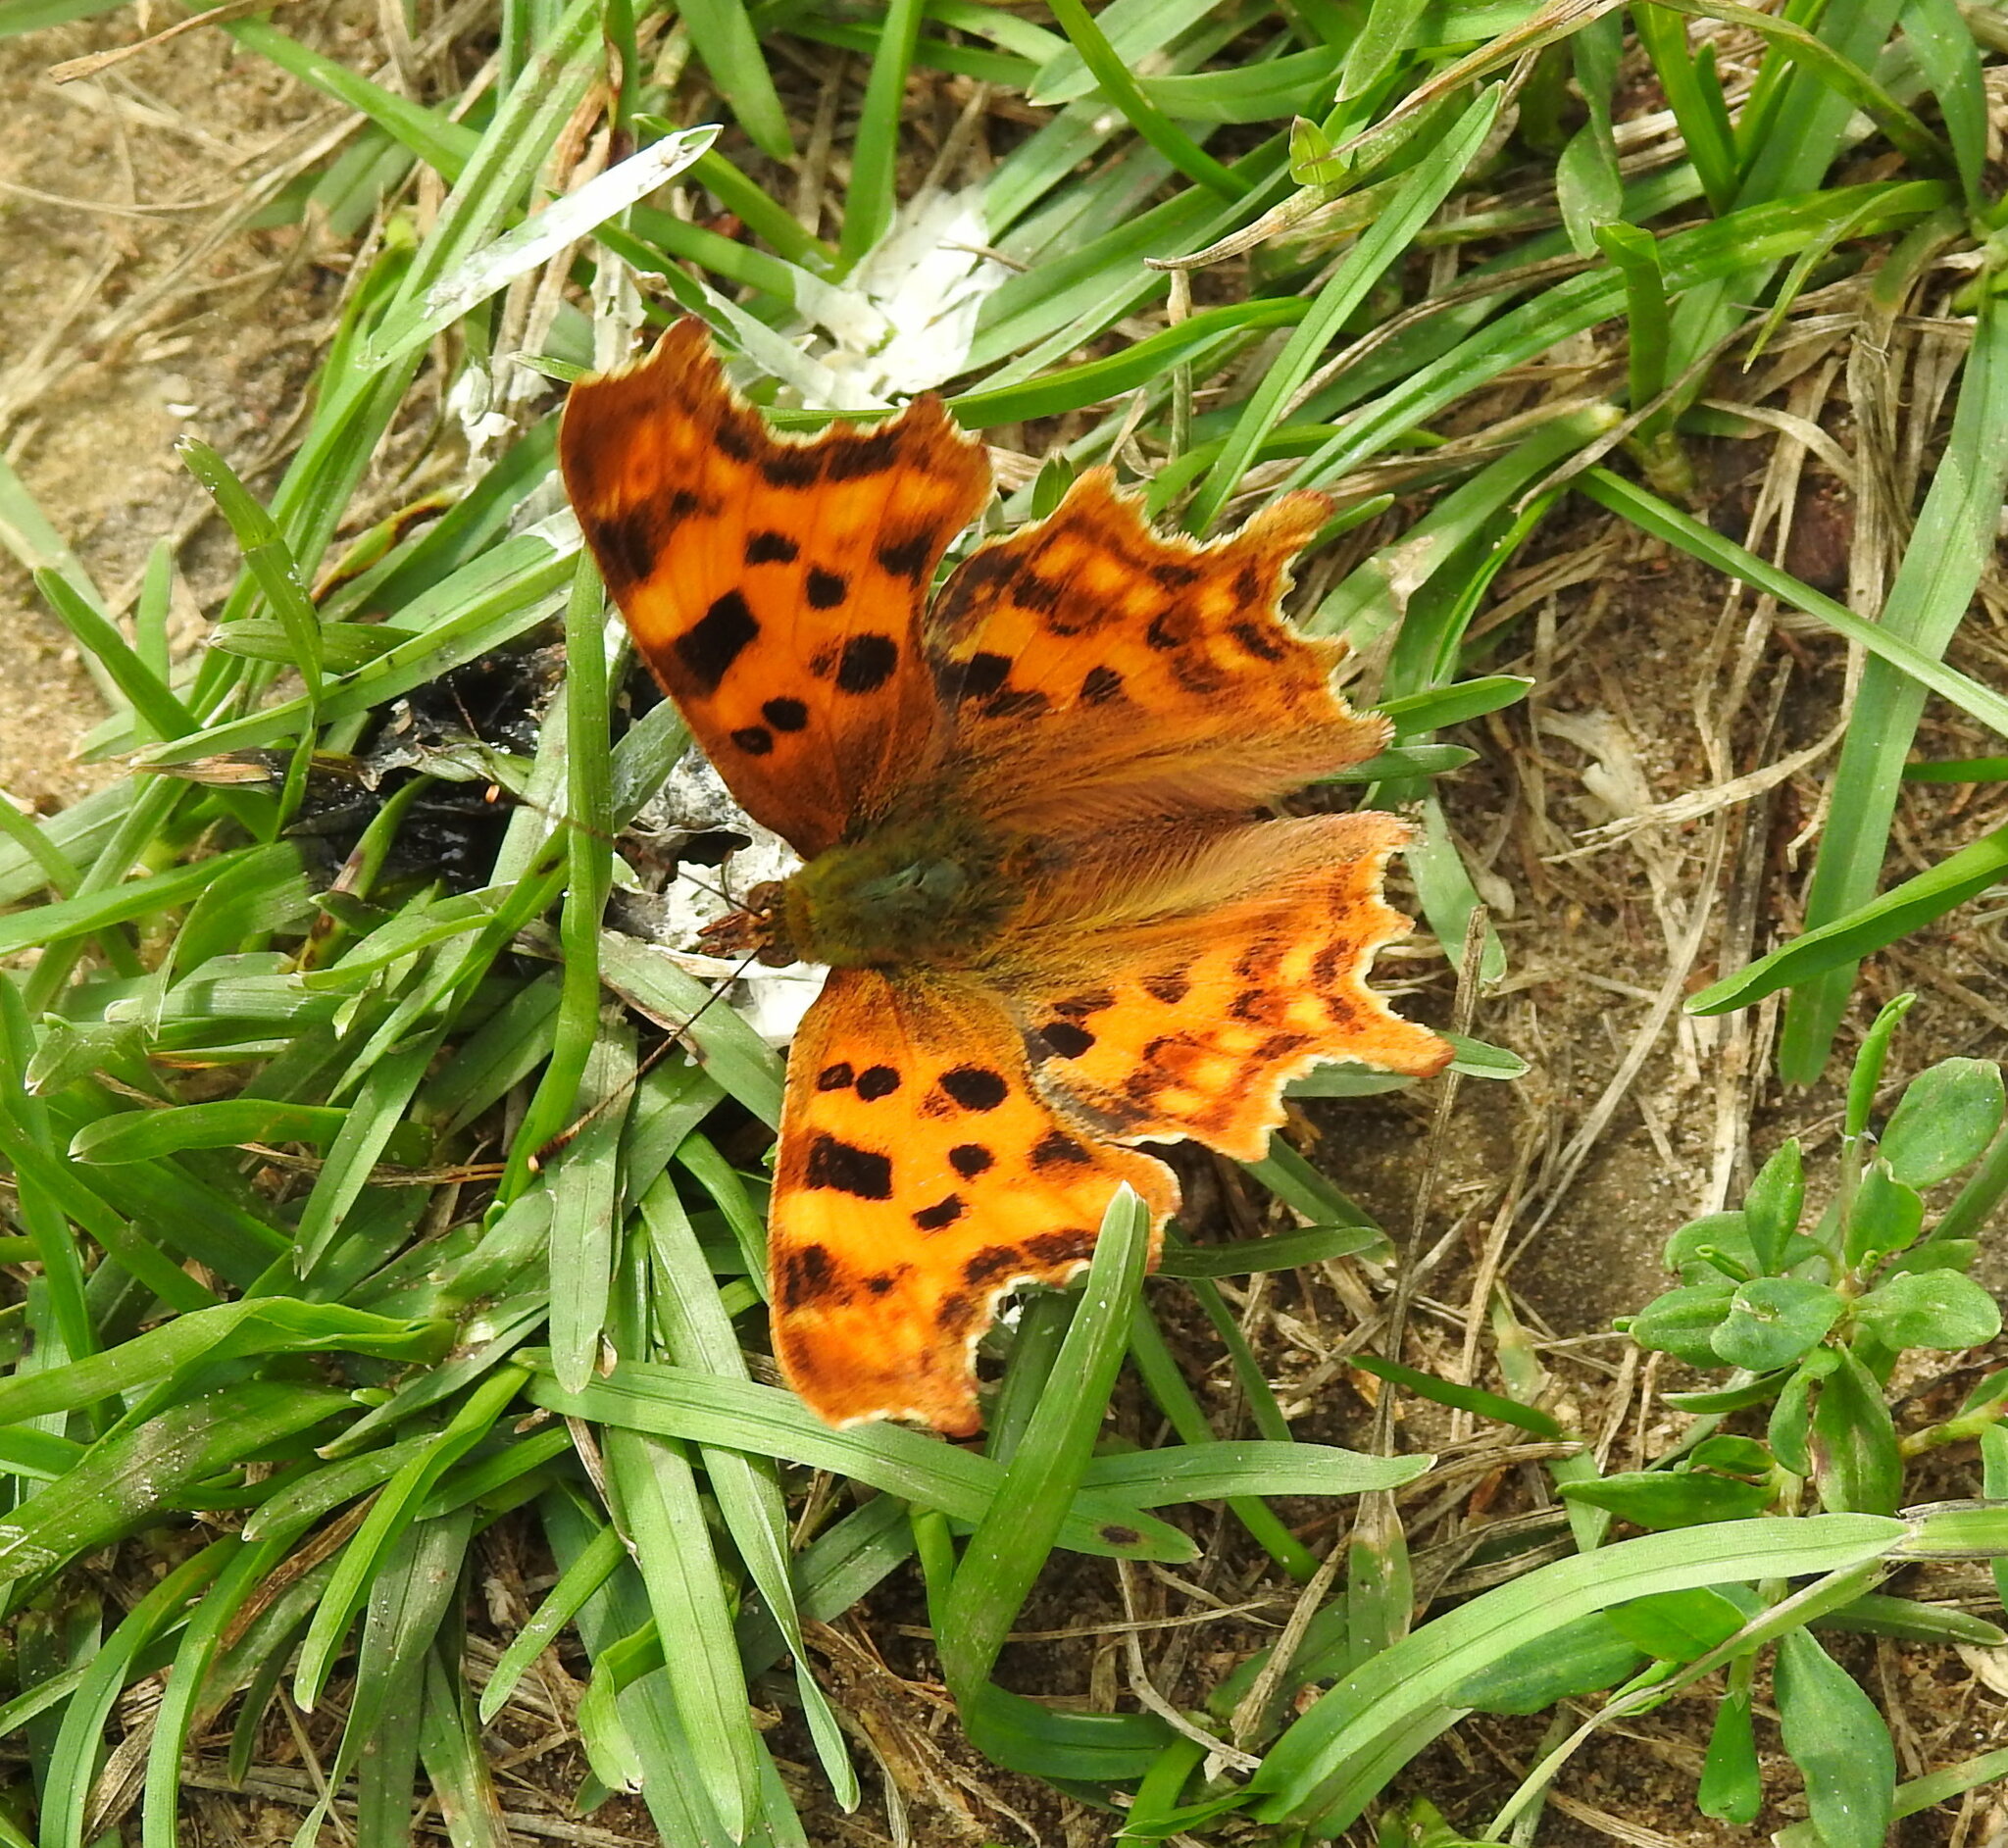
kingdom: Animalia
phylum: Arthropoda
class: Insecta
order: Lepidoptera
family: Nymphalidae
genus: Polygonia
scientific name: Polygonia c-album
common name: Comma
